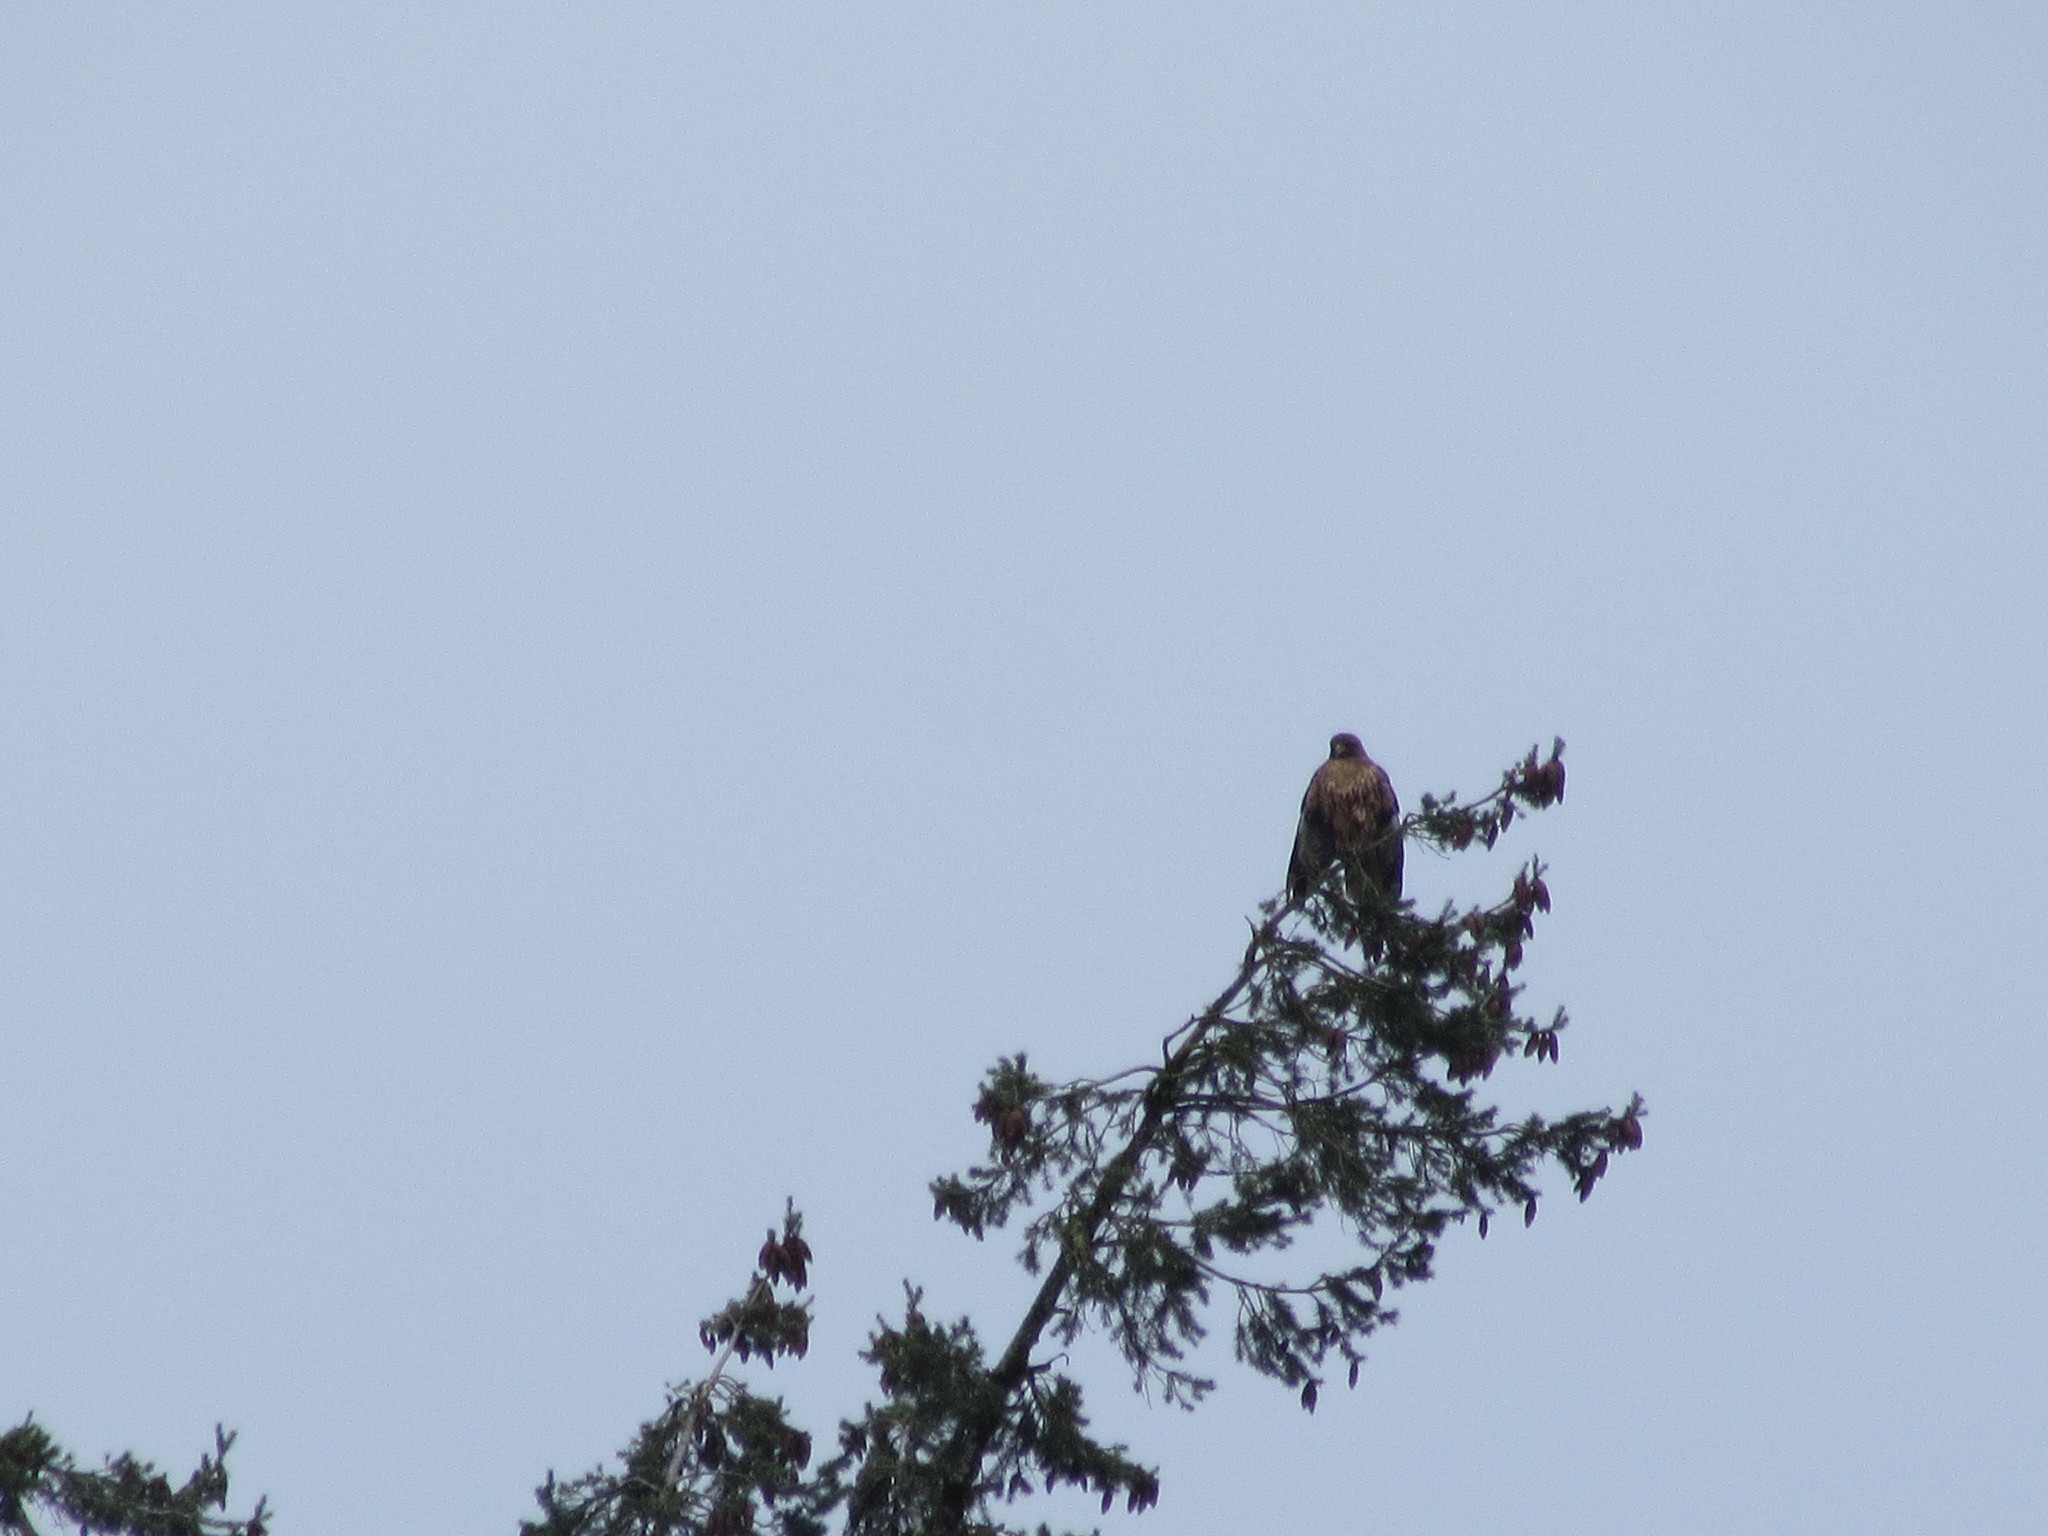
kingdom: Animalia
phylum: Chordata
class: Aves
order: Accipitriformes
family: Accipitridae
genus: Buteo
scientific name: Buteo jamaicensis
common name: Red-tailed hawk
